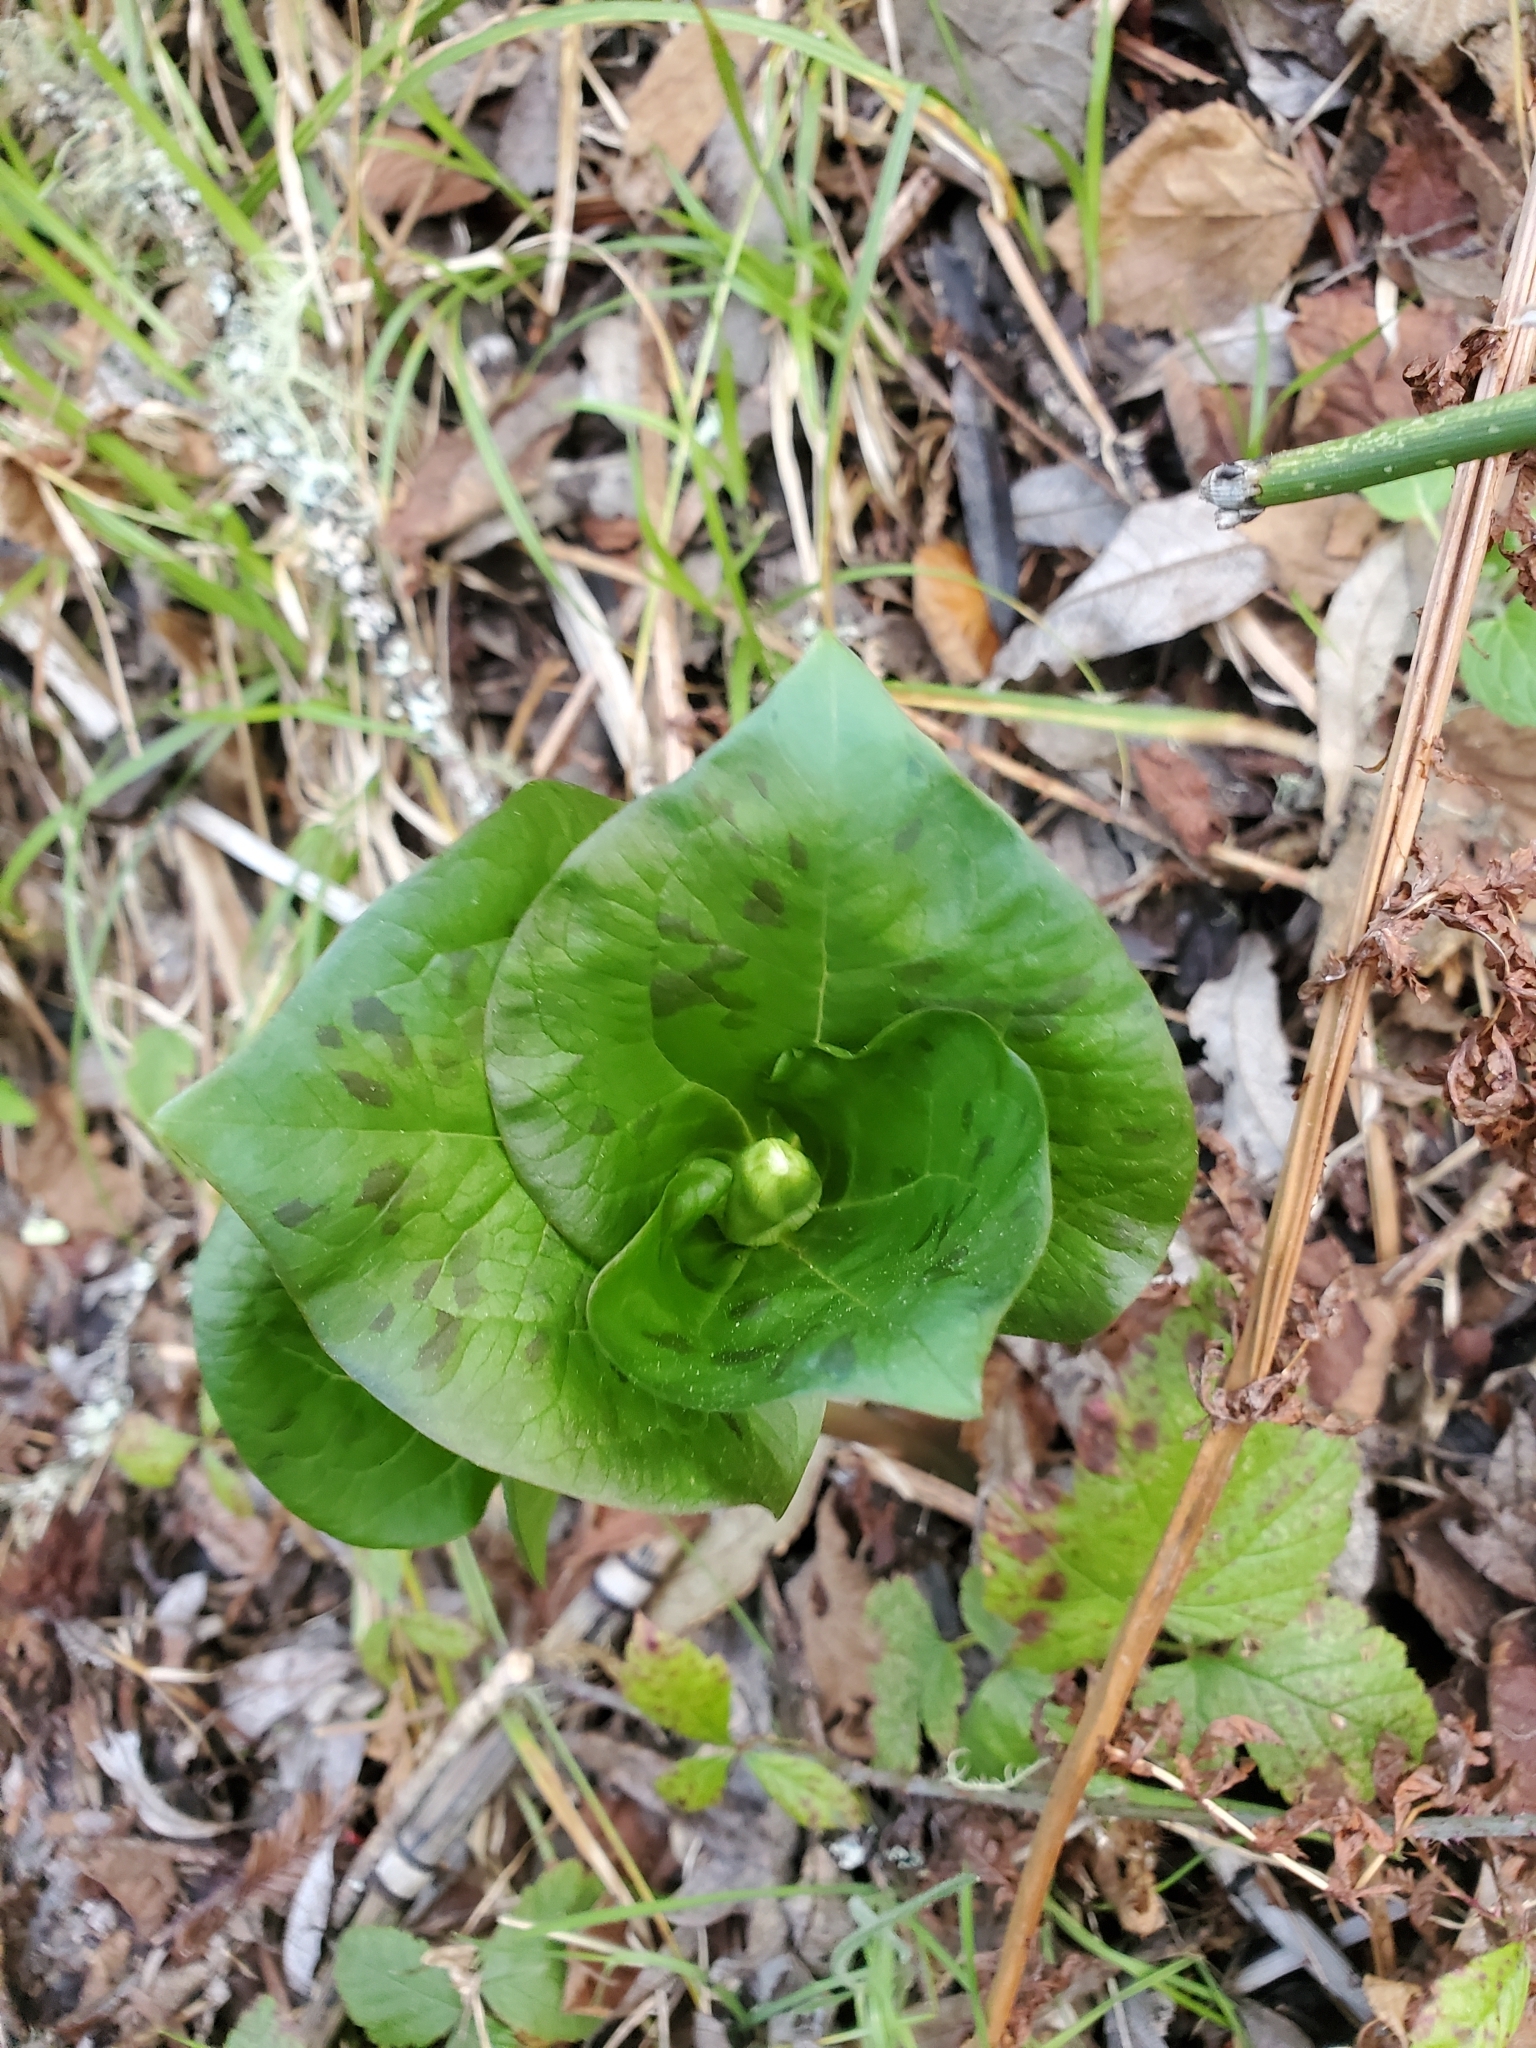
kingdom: Plantae
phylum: Tracheophyta
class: Liliopsida
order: Liliales
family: Melanthiaceae
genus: Trillium
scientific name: Trillium chloropetalum
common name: Giant trillium
